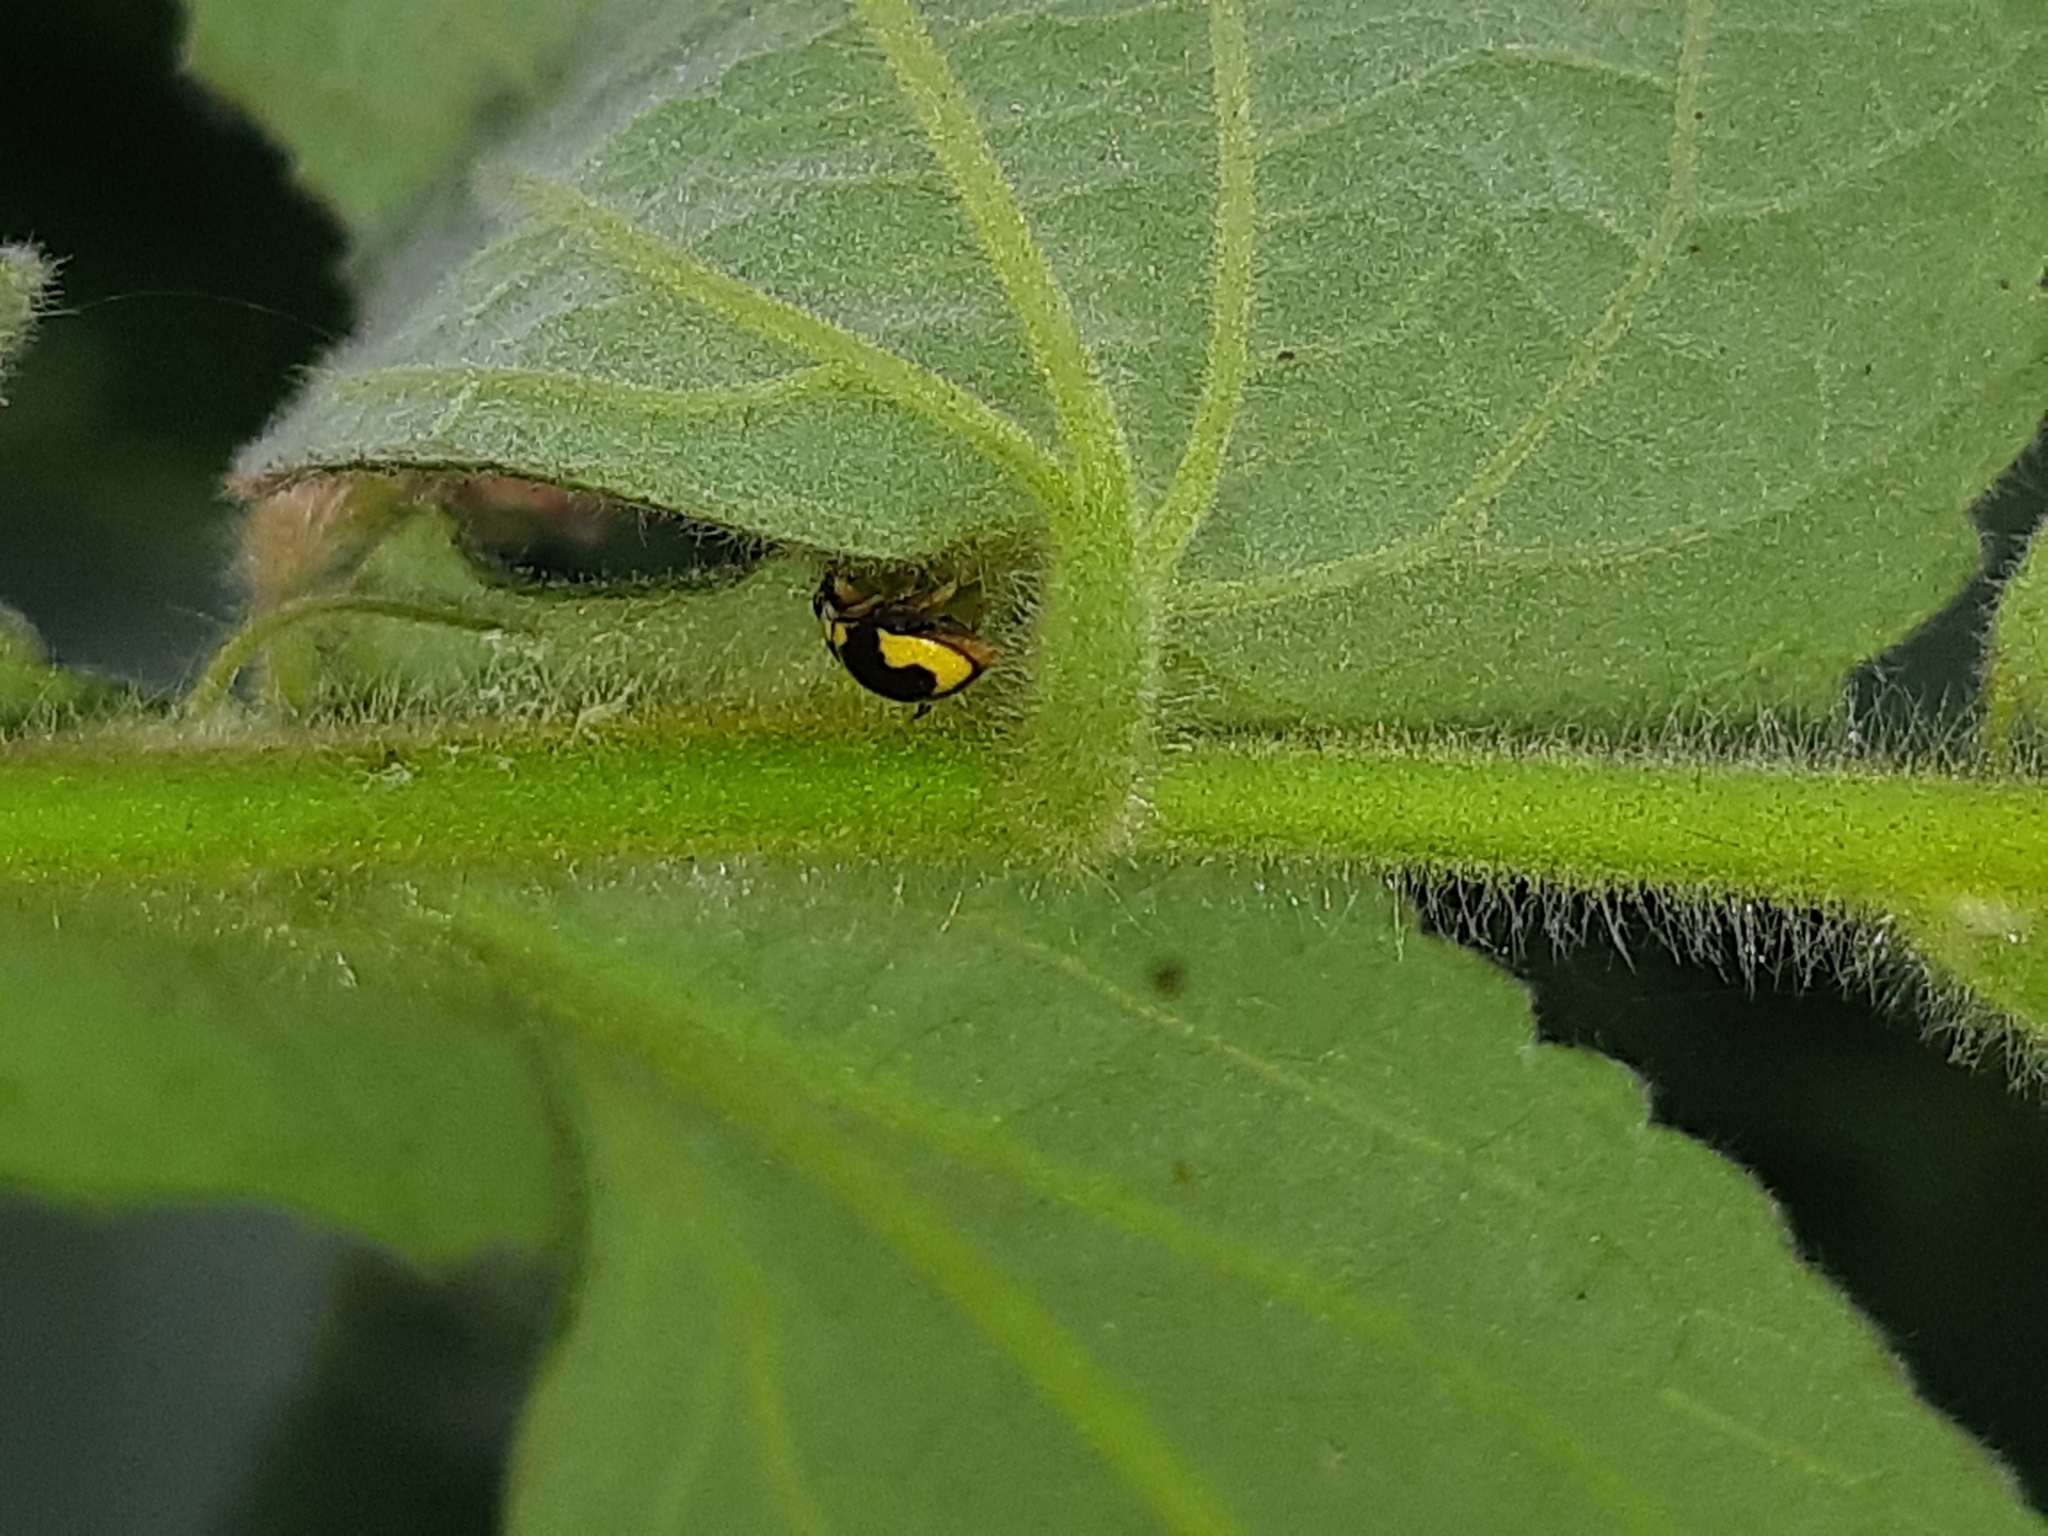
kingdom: Animalia
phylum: Arthropoda
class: Insecta
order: Coleoptera
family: Coccinellidae
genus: Tenuisvalvae
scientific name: Tenuisvalvae
